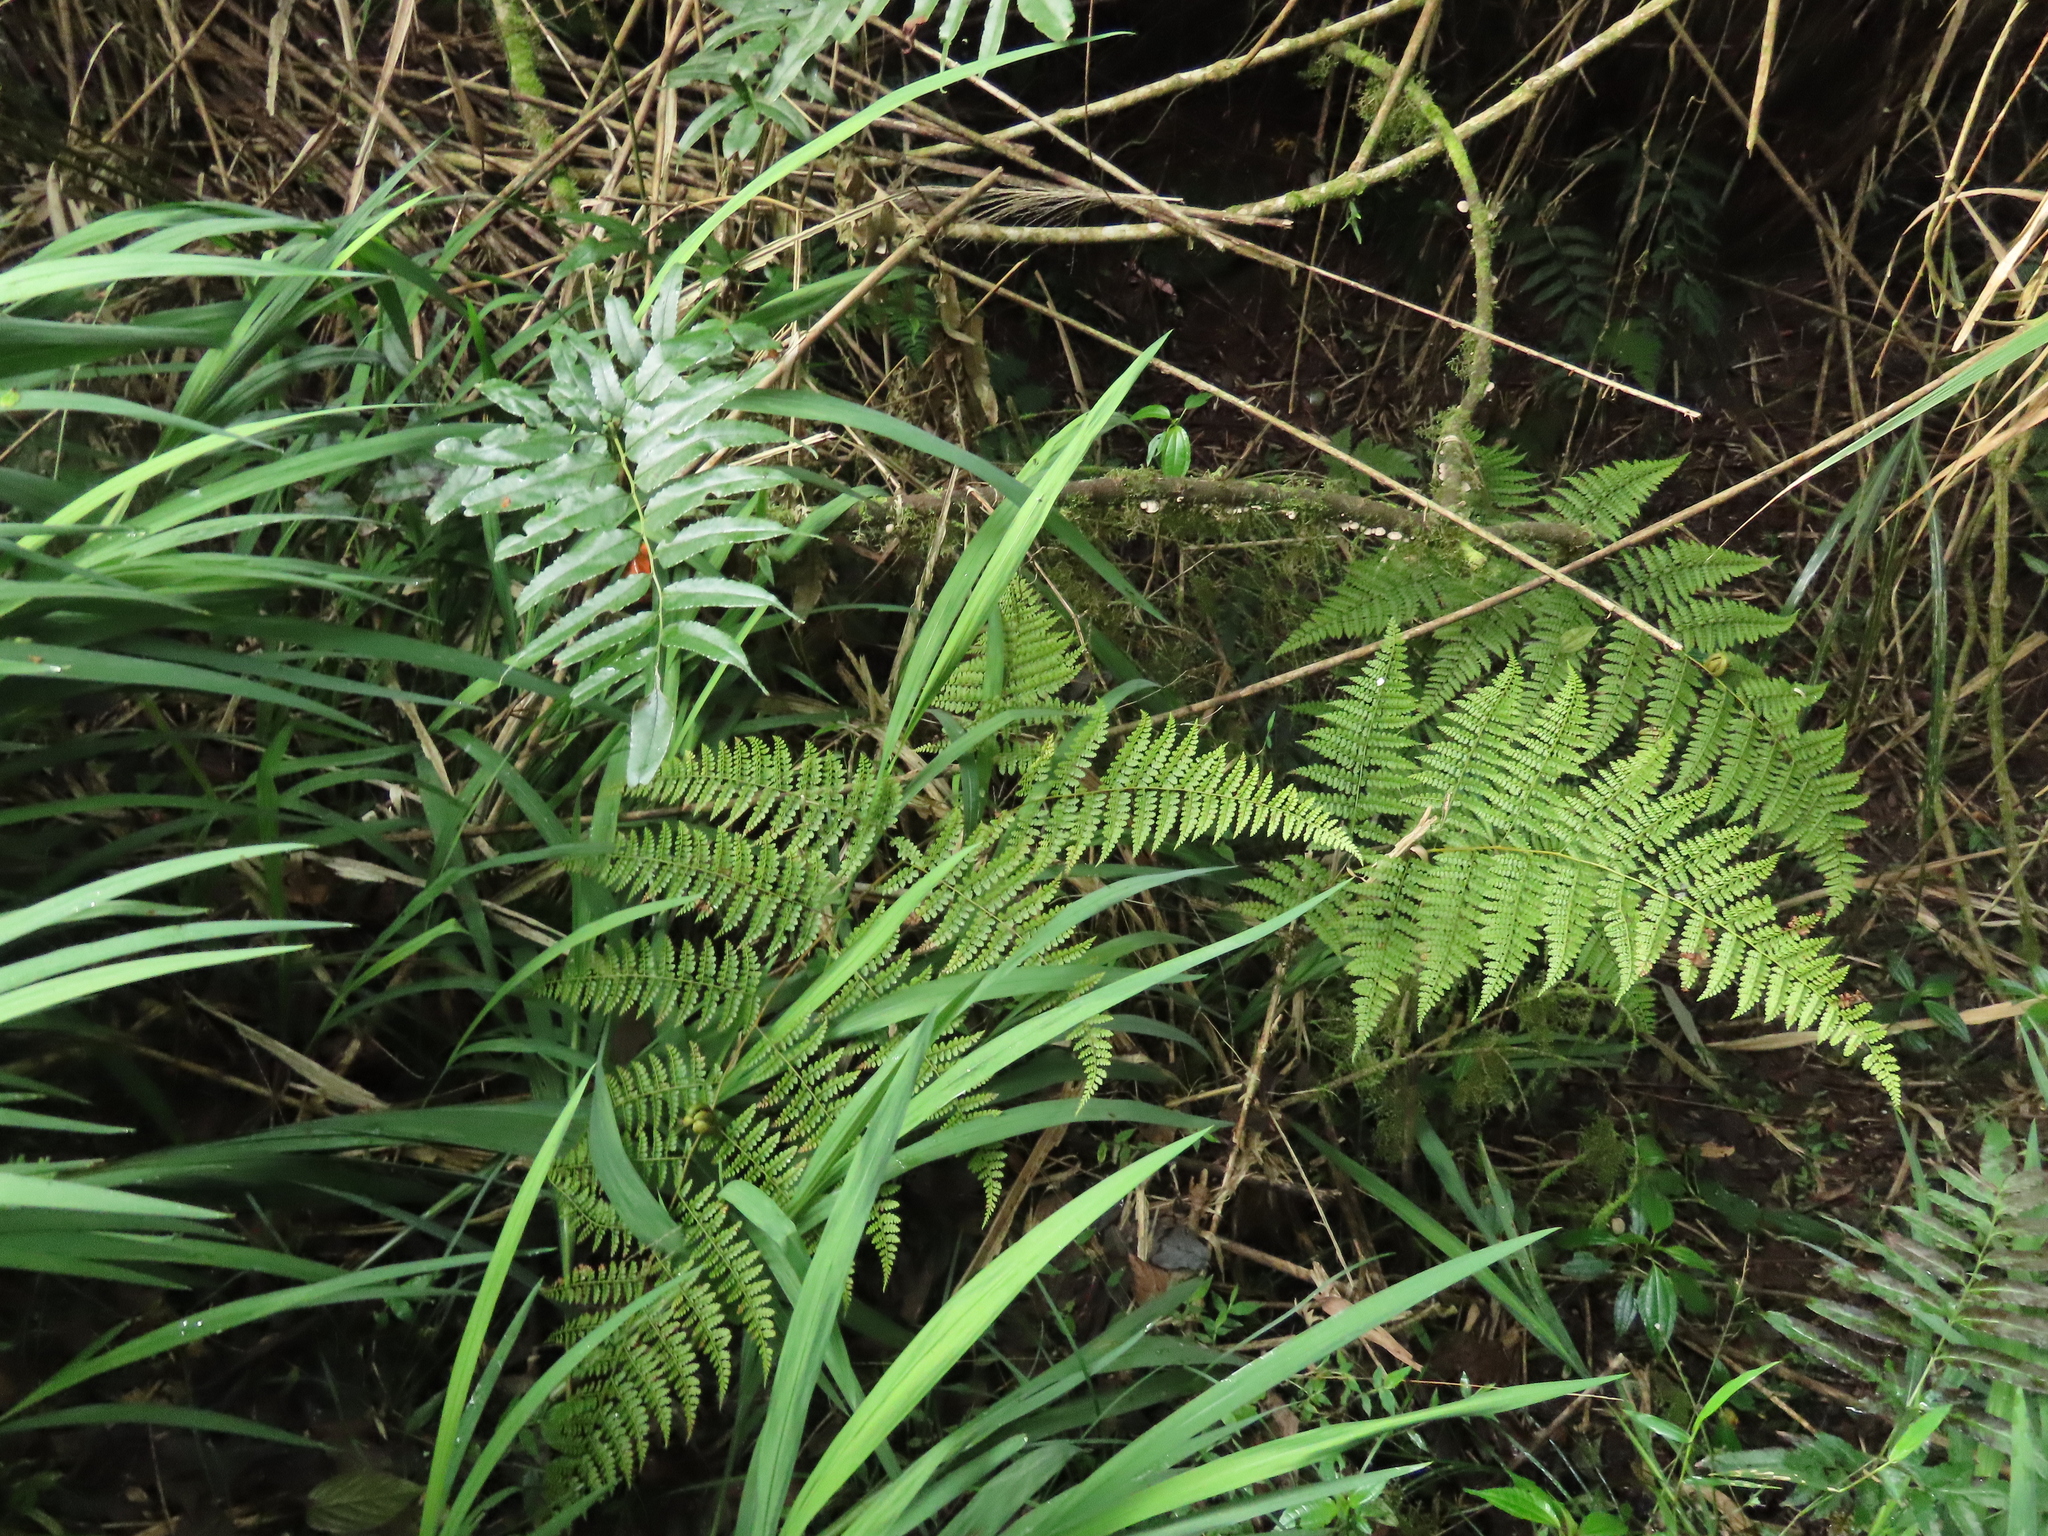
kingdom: Plantae
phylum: Tracheophyta
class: Polypodiopsida
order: Polypodiales
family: Dennstaedtiaceae
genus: Monachosorum
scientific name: Monachosorum henryi
